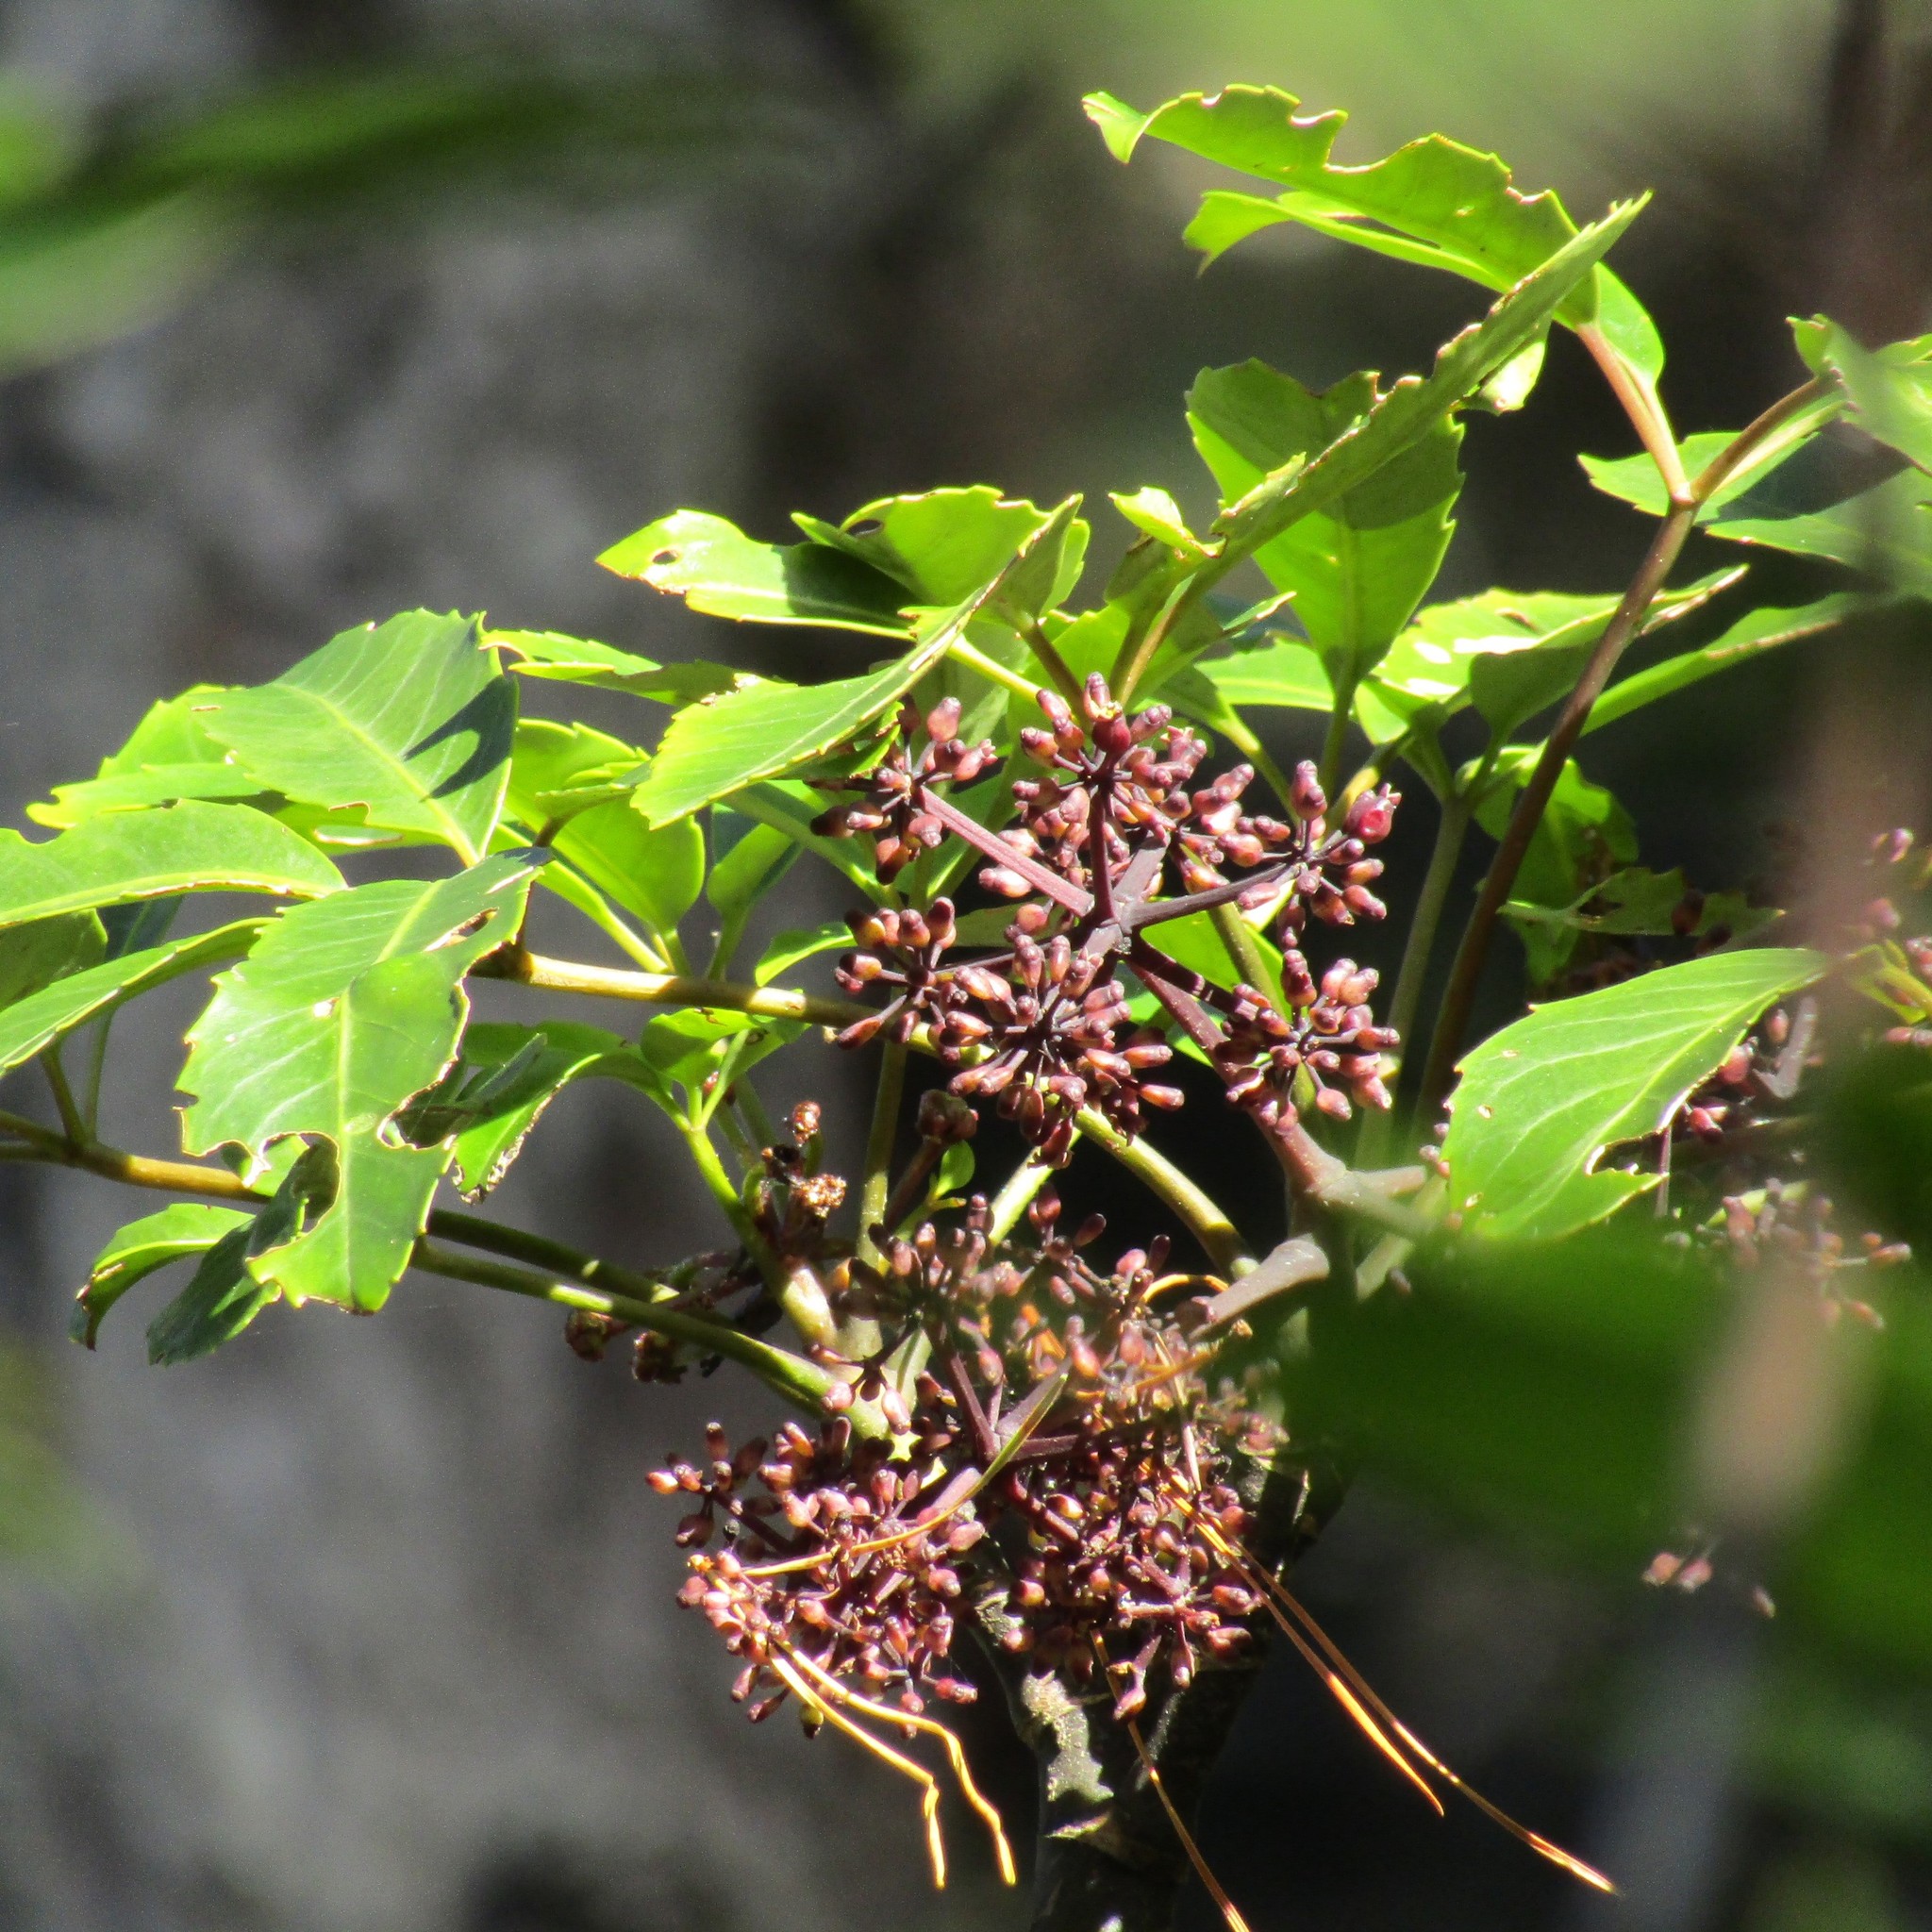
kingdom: Plantae
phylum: Tracheophyta
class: Magnoliopsida
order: Apiales
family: Araliaceae
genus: Neopanax
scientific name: Neopanax arboreus
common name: Five-fingers
